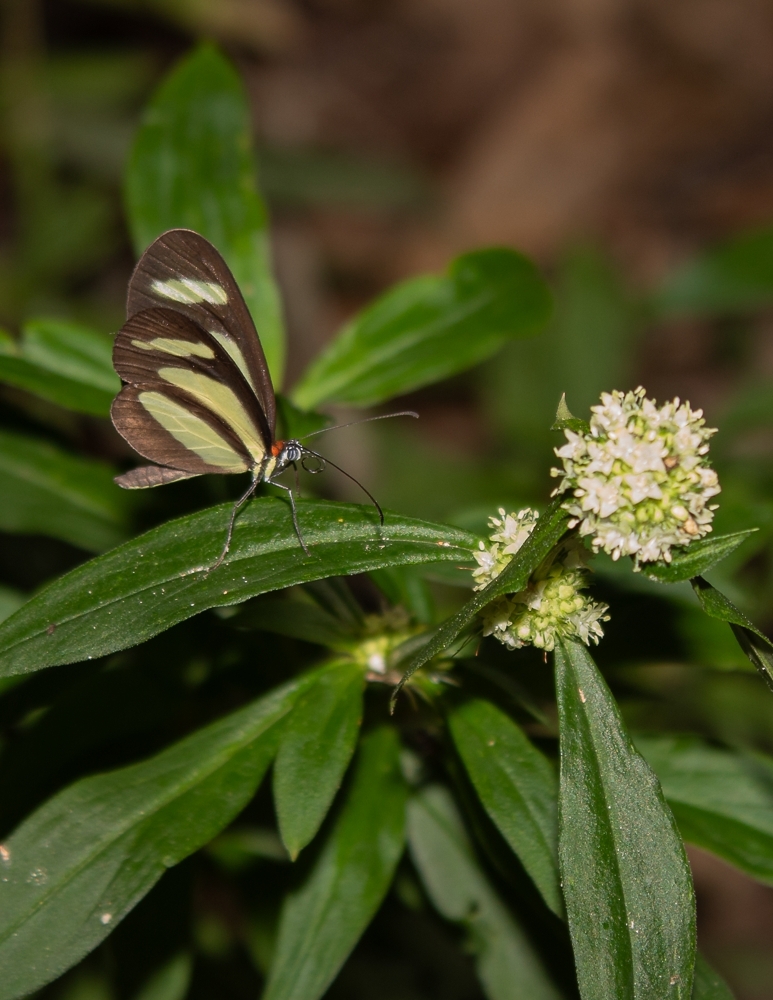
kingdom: Animalia
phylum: Arthropoda
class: Insecta
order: Lepidoptera
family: Nymphalidae
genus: Aeria
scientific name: Aeria olena
